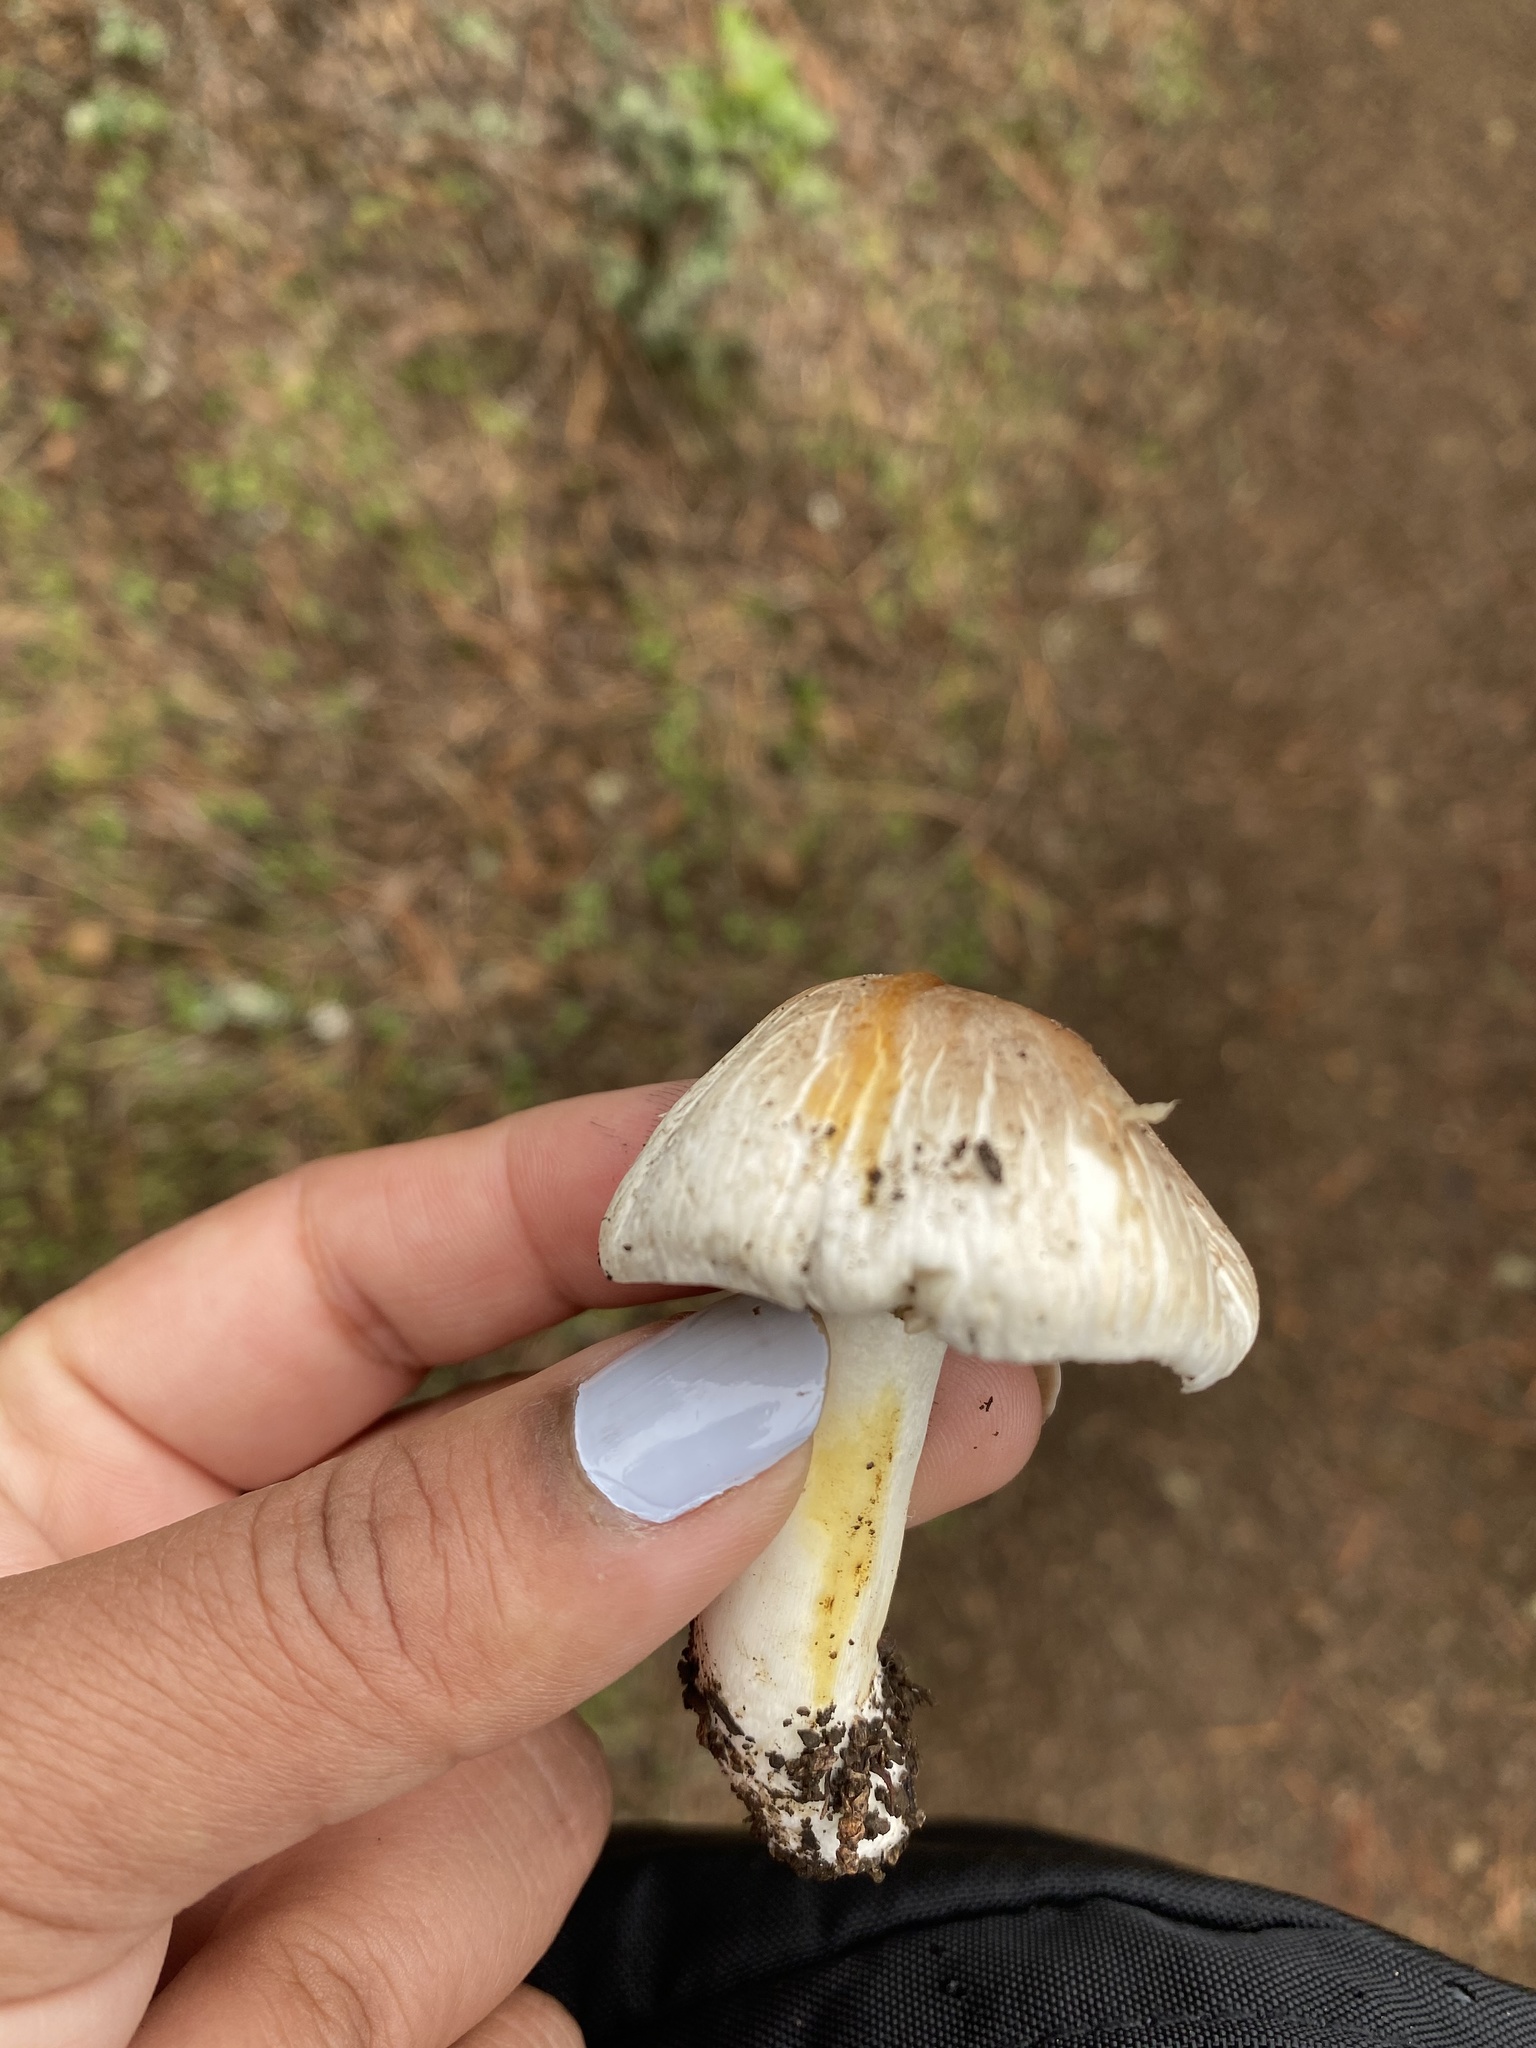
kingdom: Fungi
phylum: Basidiomycota
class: Agaricomycetes
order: Agaricales
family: Agaricaceae
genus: Agaricus
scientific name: Agaricus californicus
